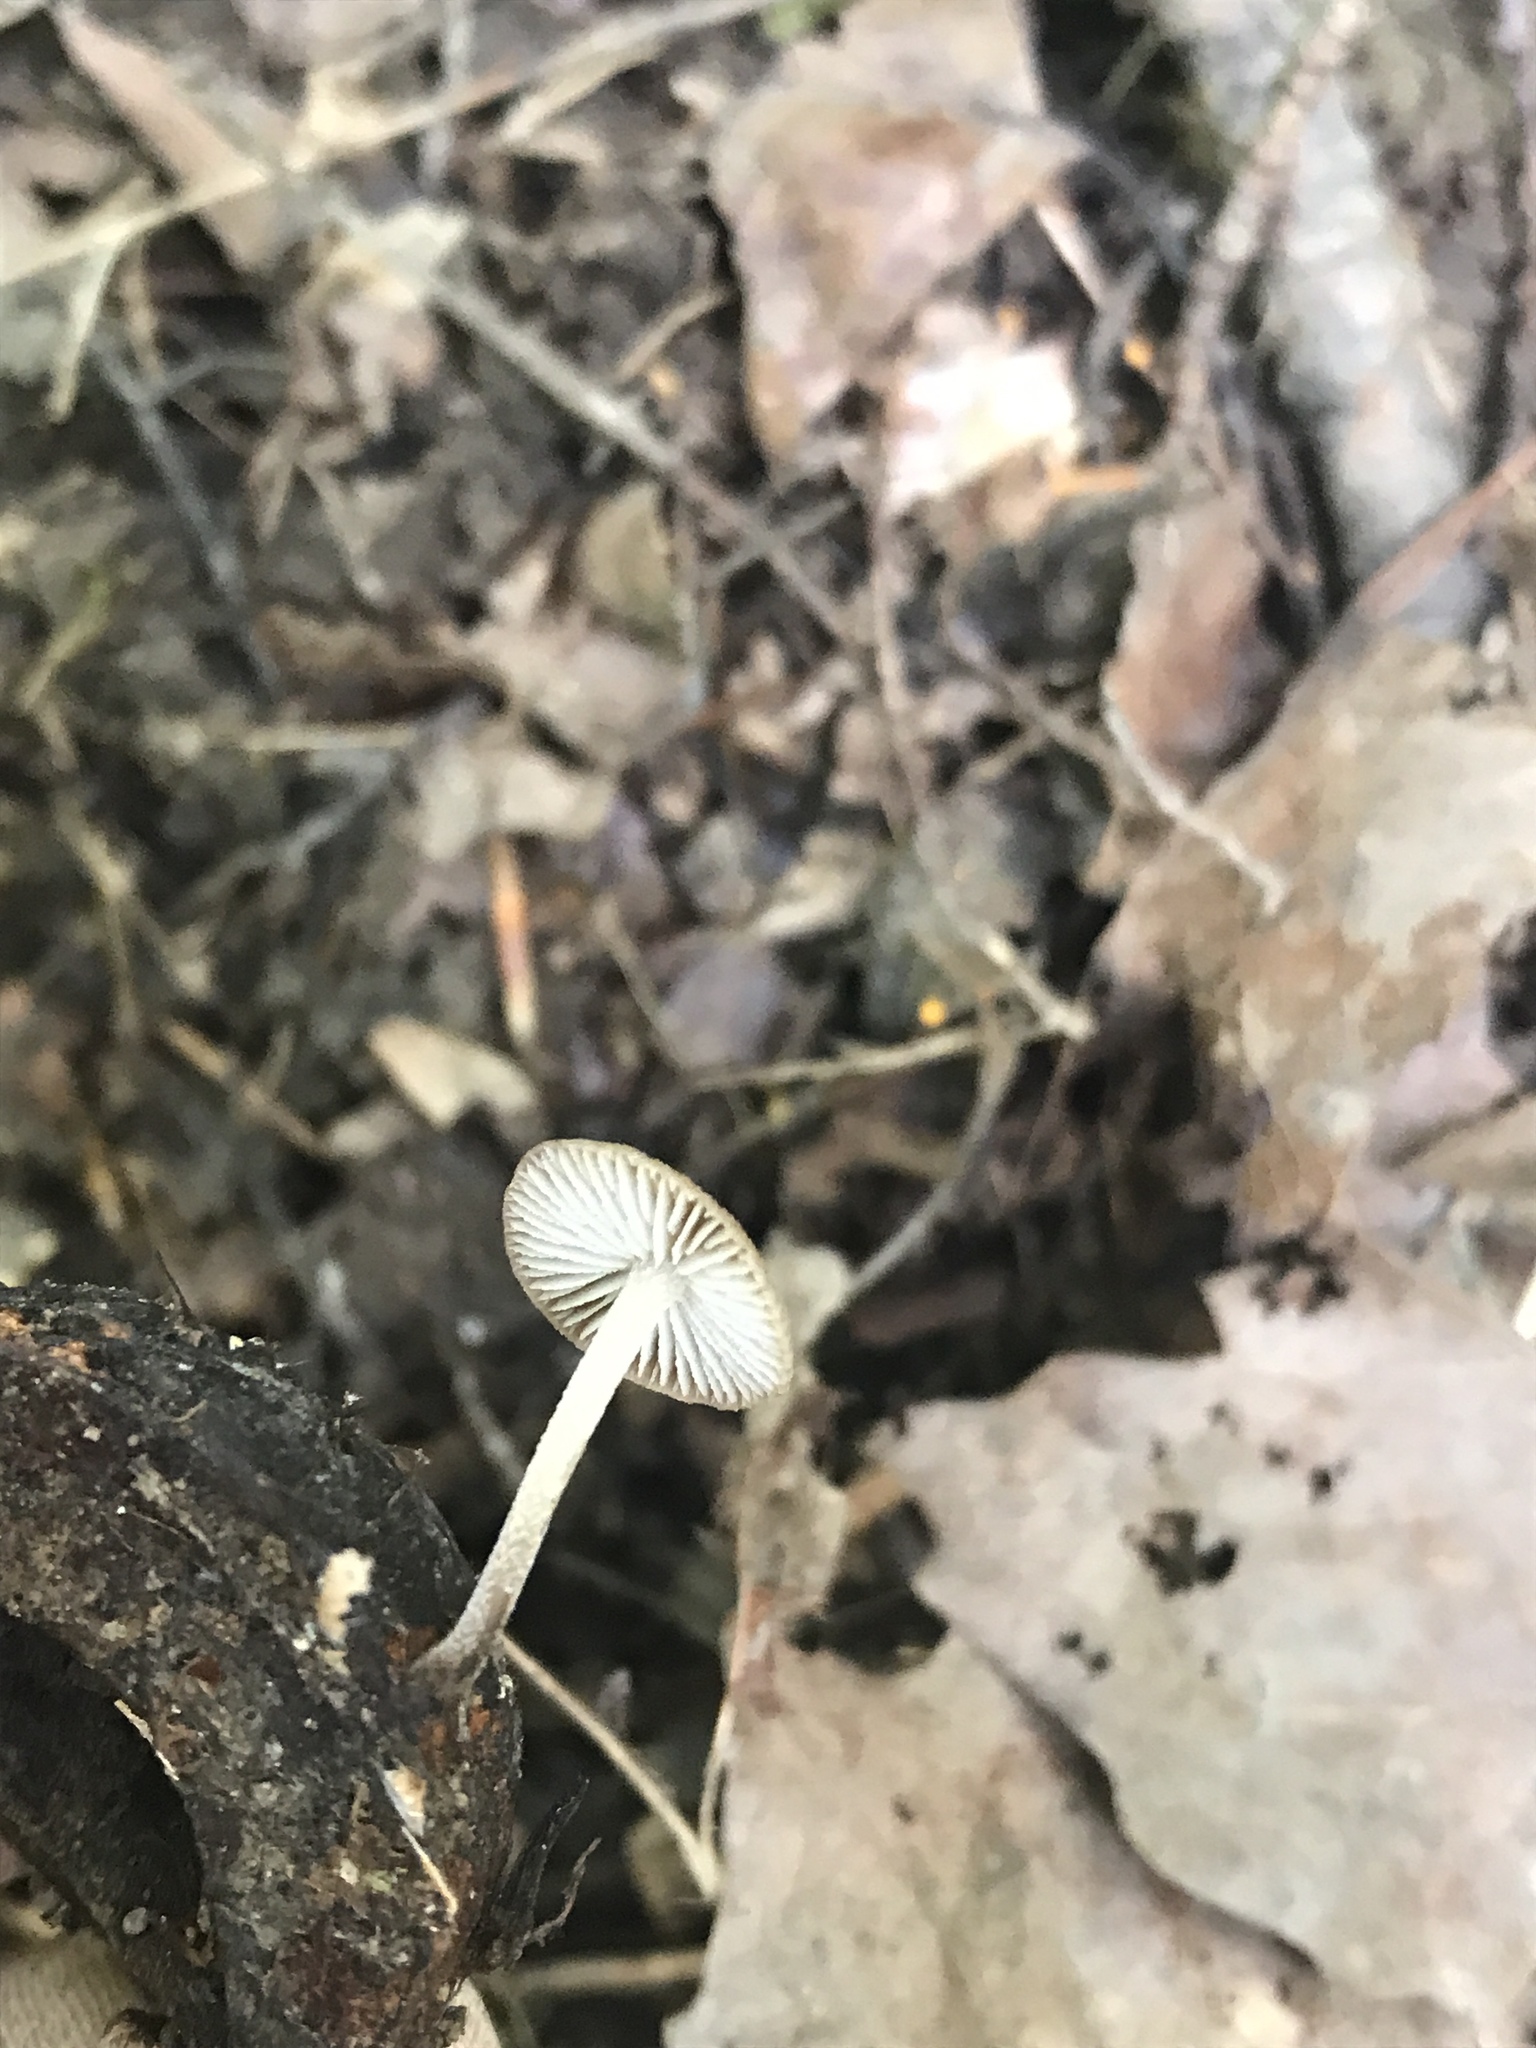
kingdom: Fungi
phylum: Basidiomycota
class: Agaricomycetes
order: Agaricales
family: Omphalotaceae
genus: Collybiopsis
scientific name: Collybiopsis dichroa
